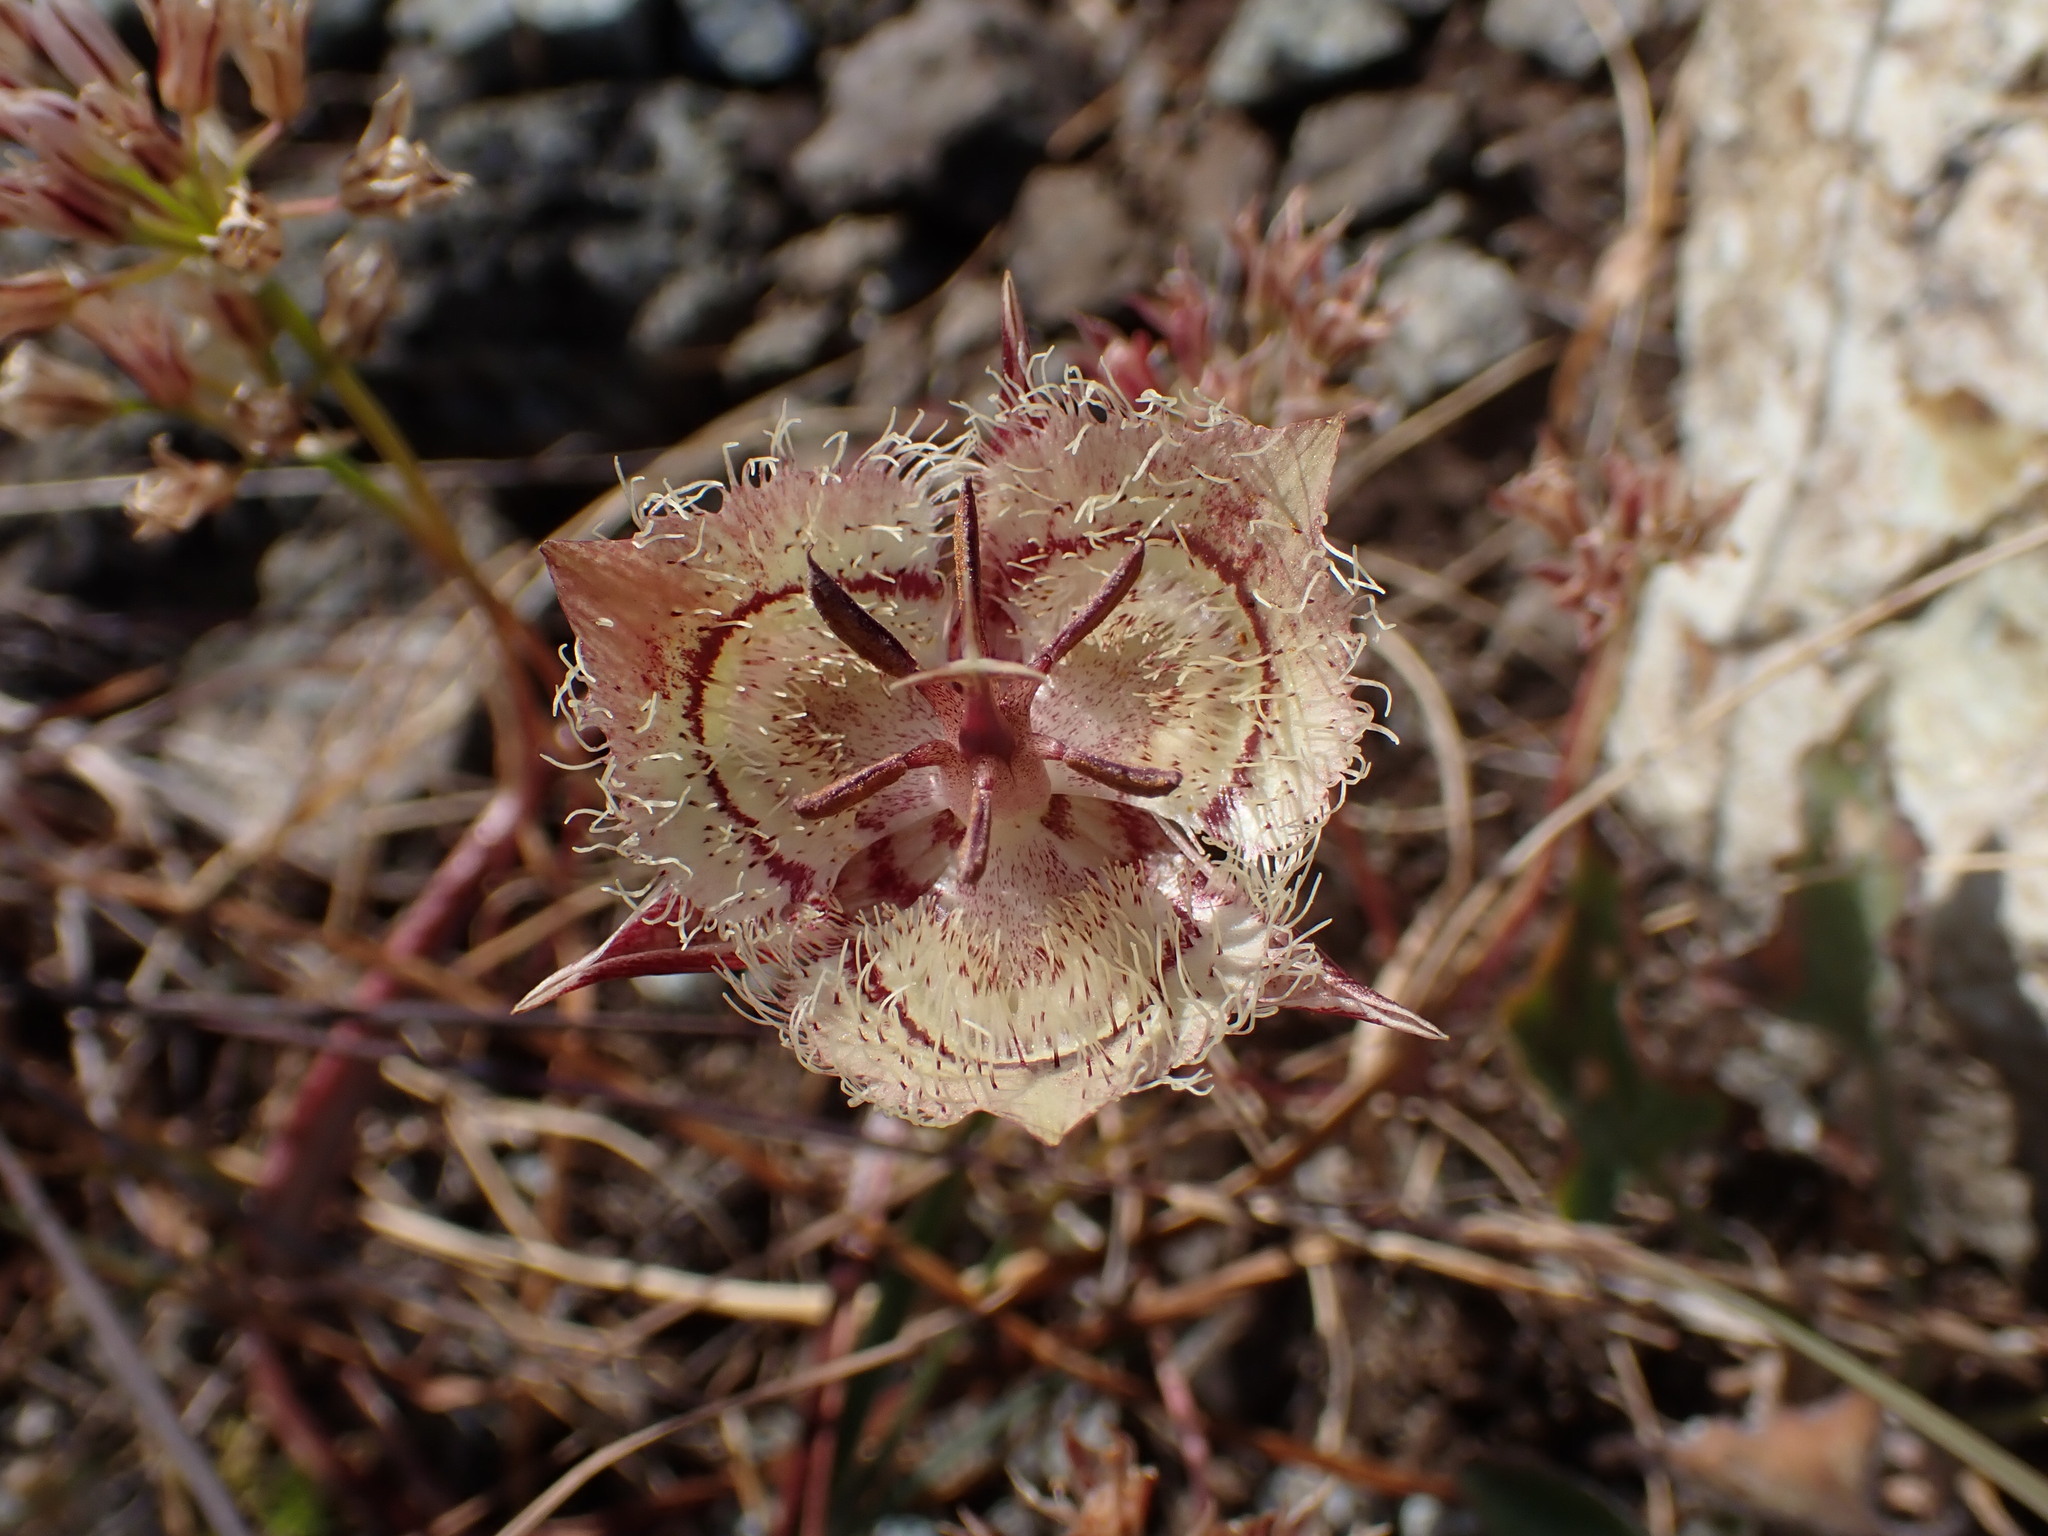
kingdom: Plantae
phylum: Tracheophyta
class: Liliopsida
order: Liliales
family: Liliaceae
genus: Calochortus
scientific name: Calochortus tiburonensis
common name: Tiburon mariposa-lily
